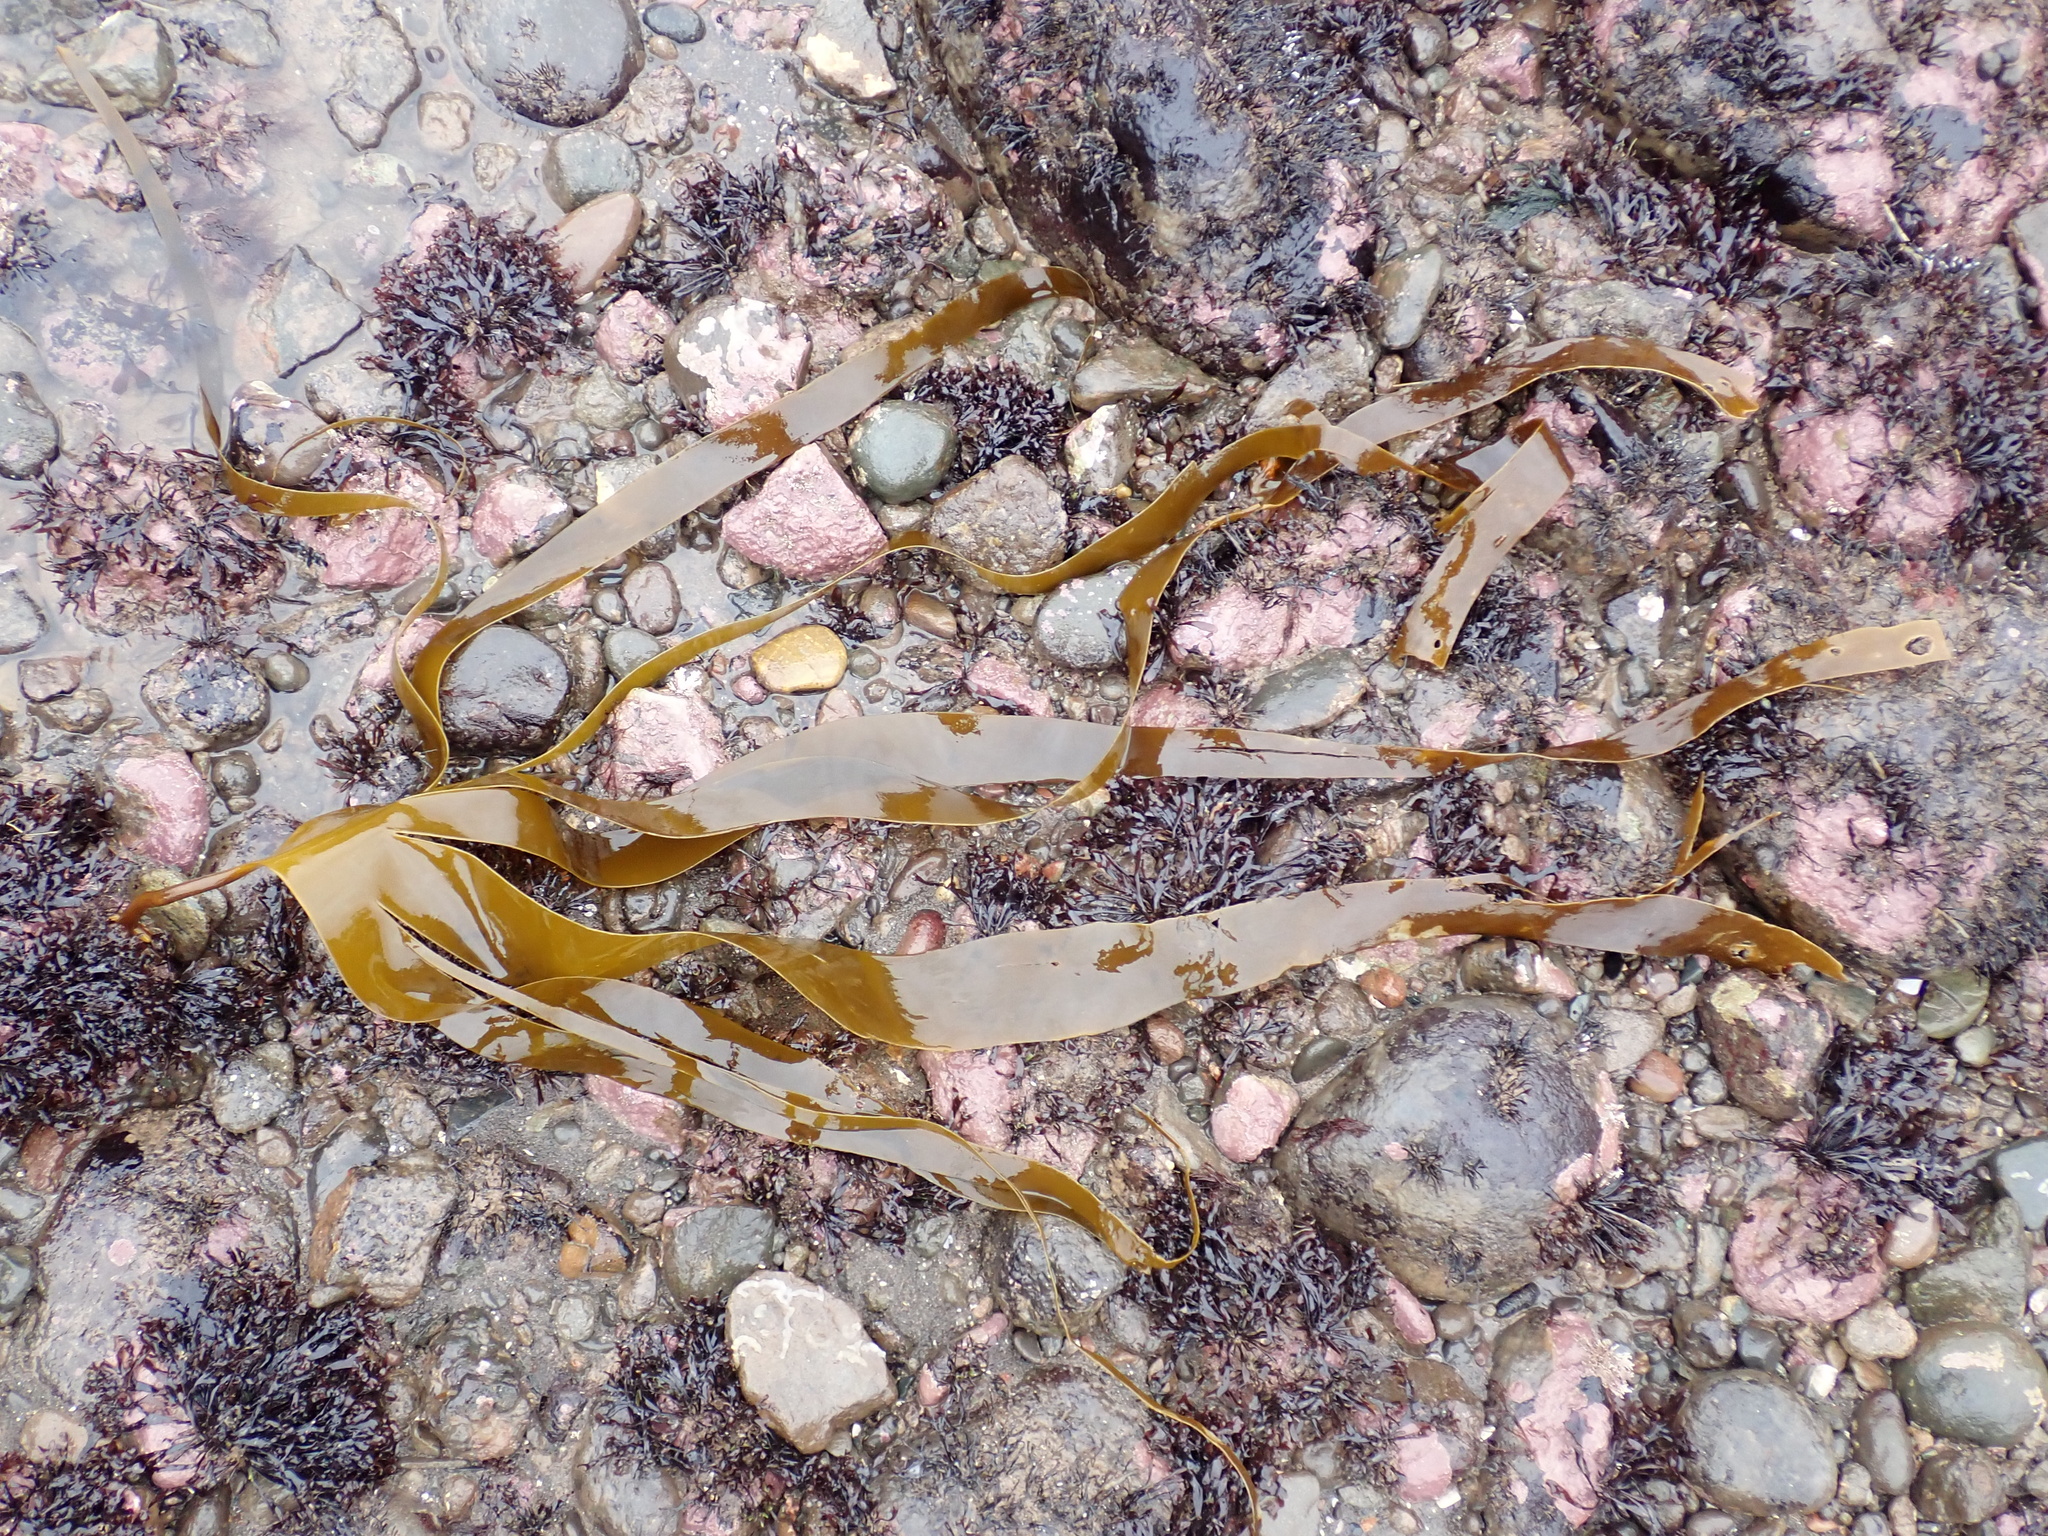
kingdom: Chromista
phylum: Ochrophyta
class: Phaeophyceae
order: Laminariales
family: Laminariaceae
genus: Laminaria
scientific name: Laminaria digitata
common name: Oarweed
